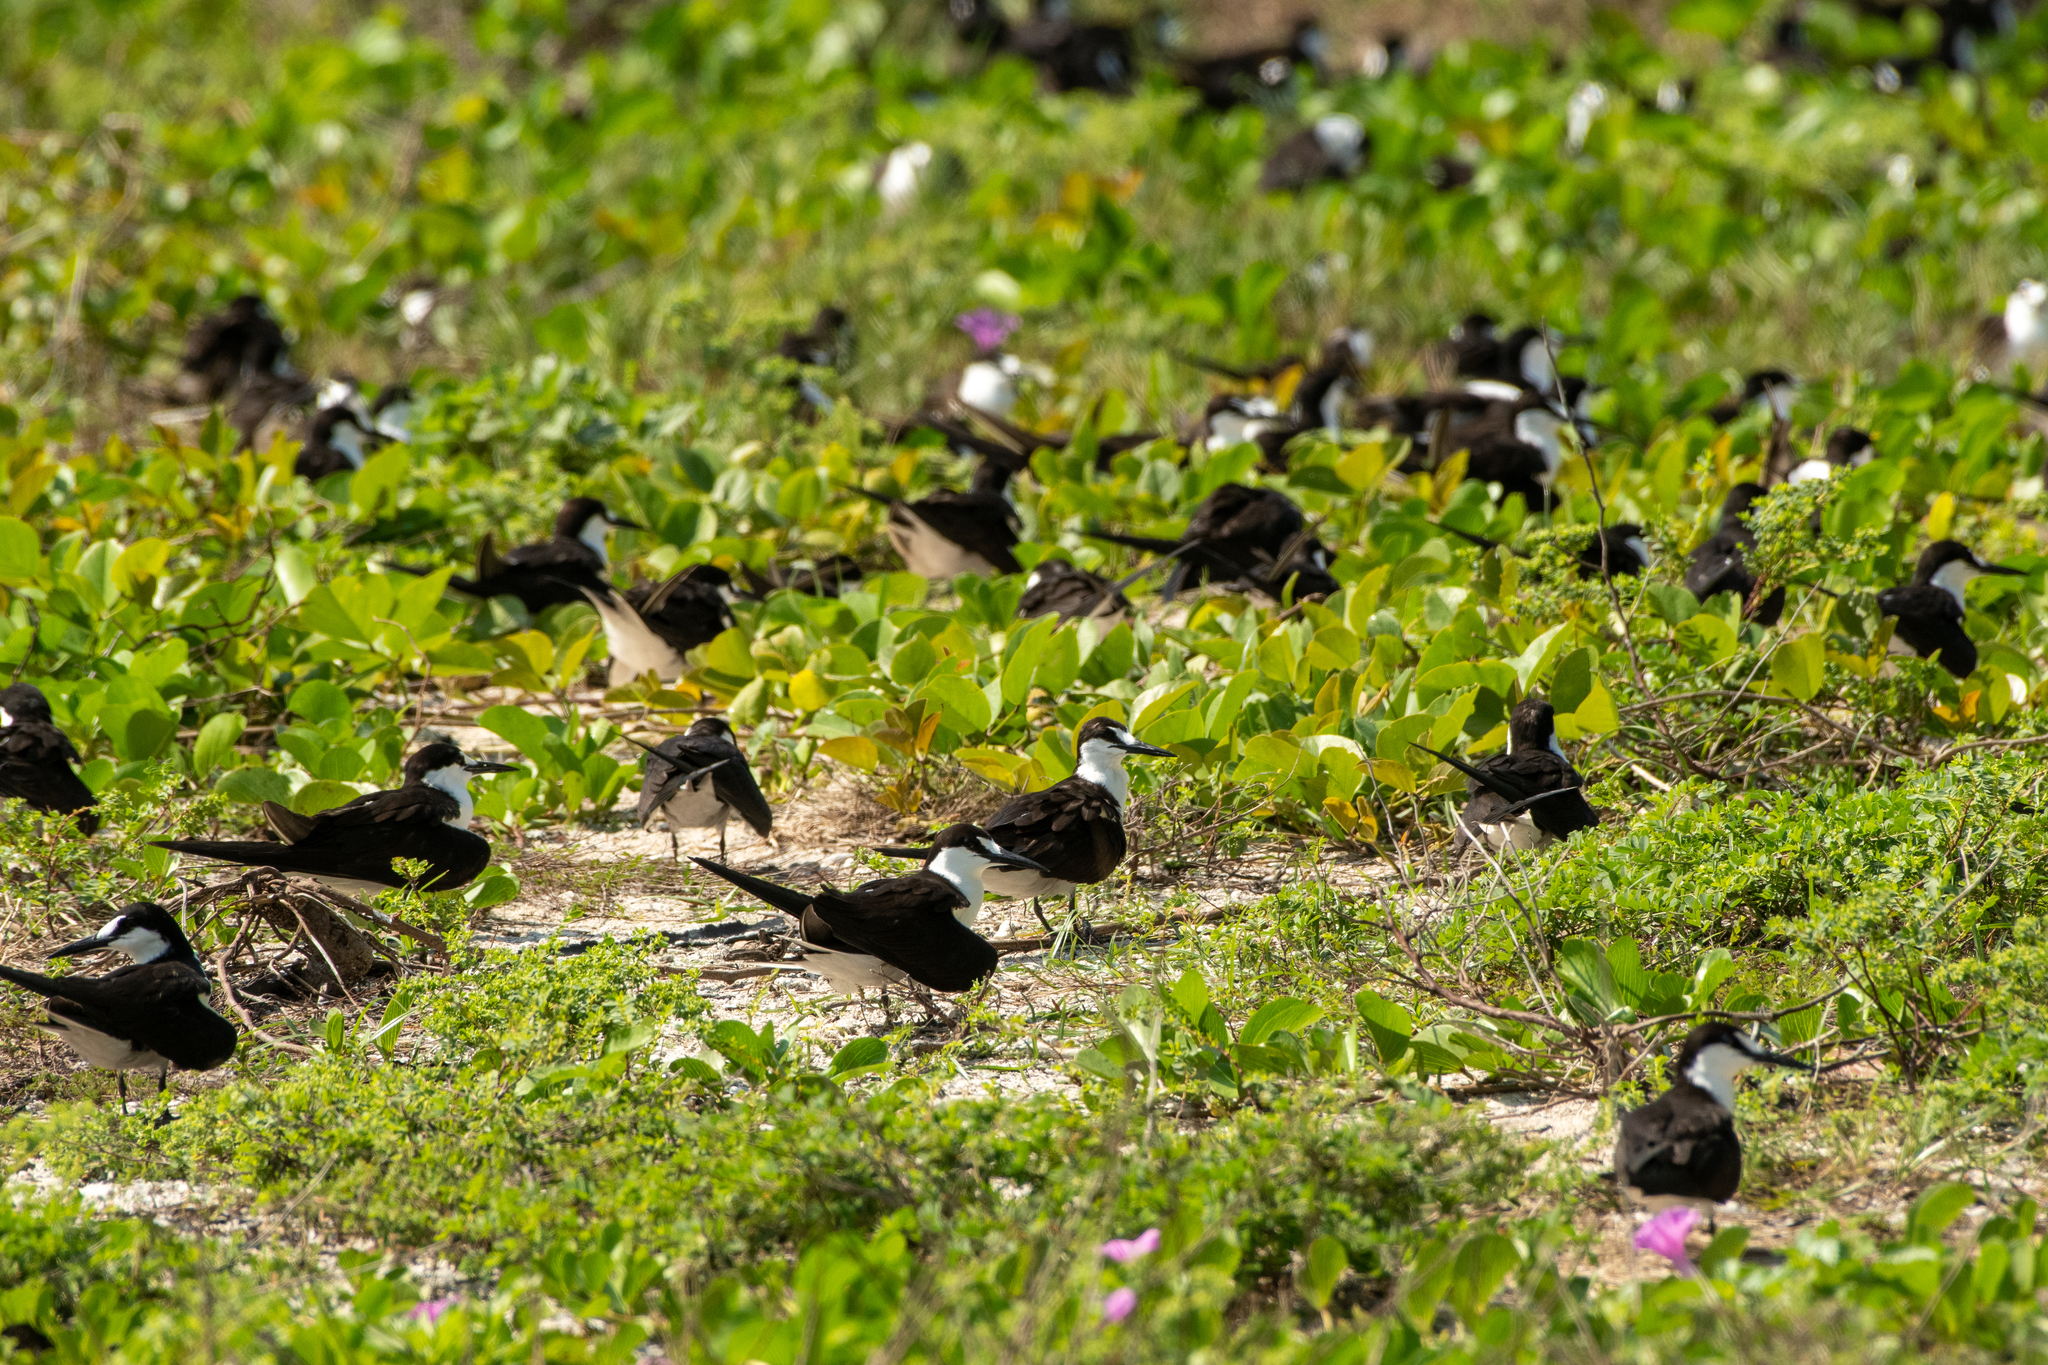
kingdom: Animalia
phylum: Chordata
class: Aves
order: Charadriiformes
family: Laridae
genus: Onychoprion
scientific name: Onychoprion fuscatus
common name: Sooty tern
